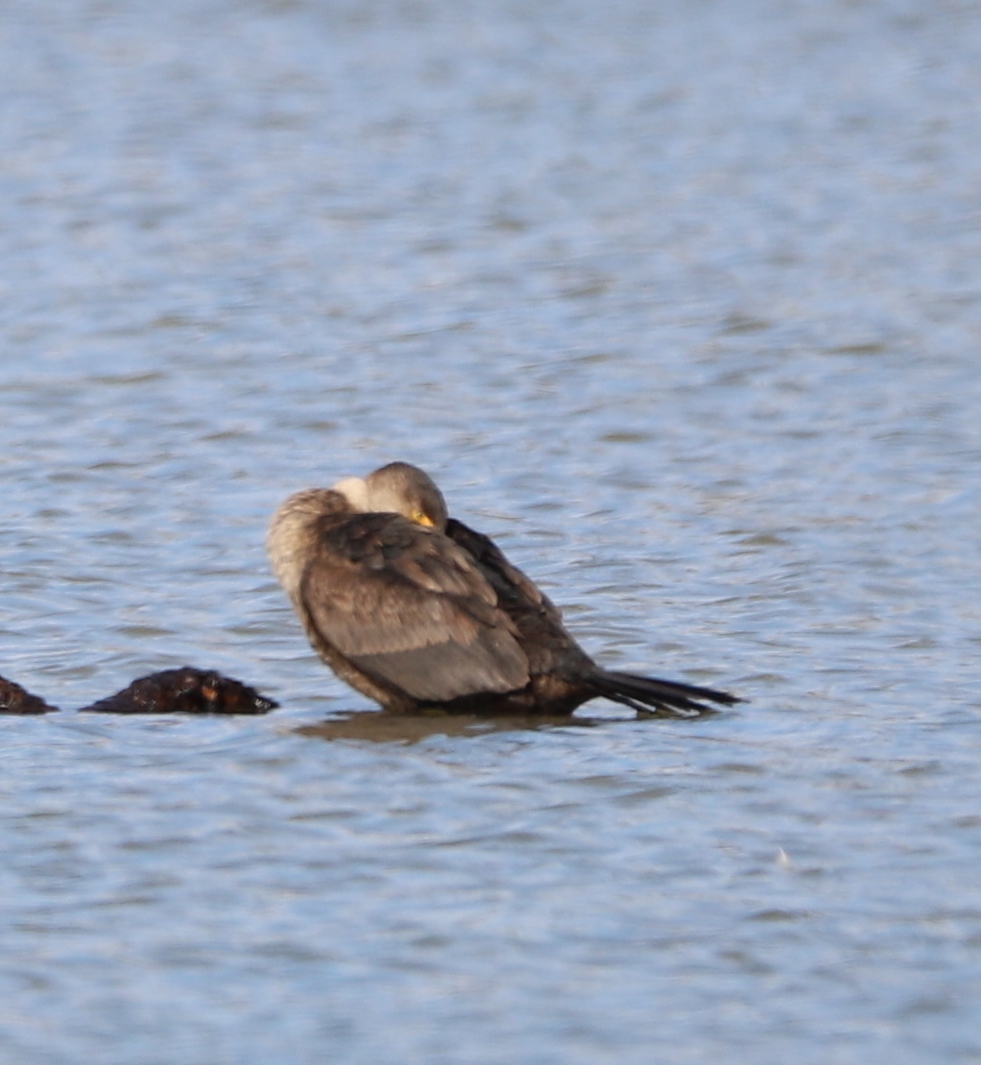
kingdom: Animalia
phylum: Chordata
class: Aves
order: Suliformes
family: Phalacrocoracidae
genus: Phalacrocorax
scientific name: Phalacrocorax auritus
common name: Double-crested cormorant
